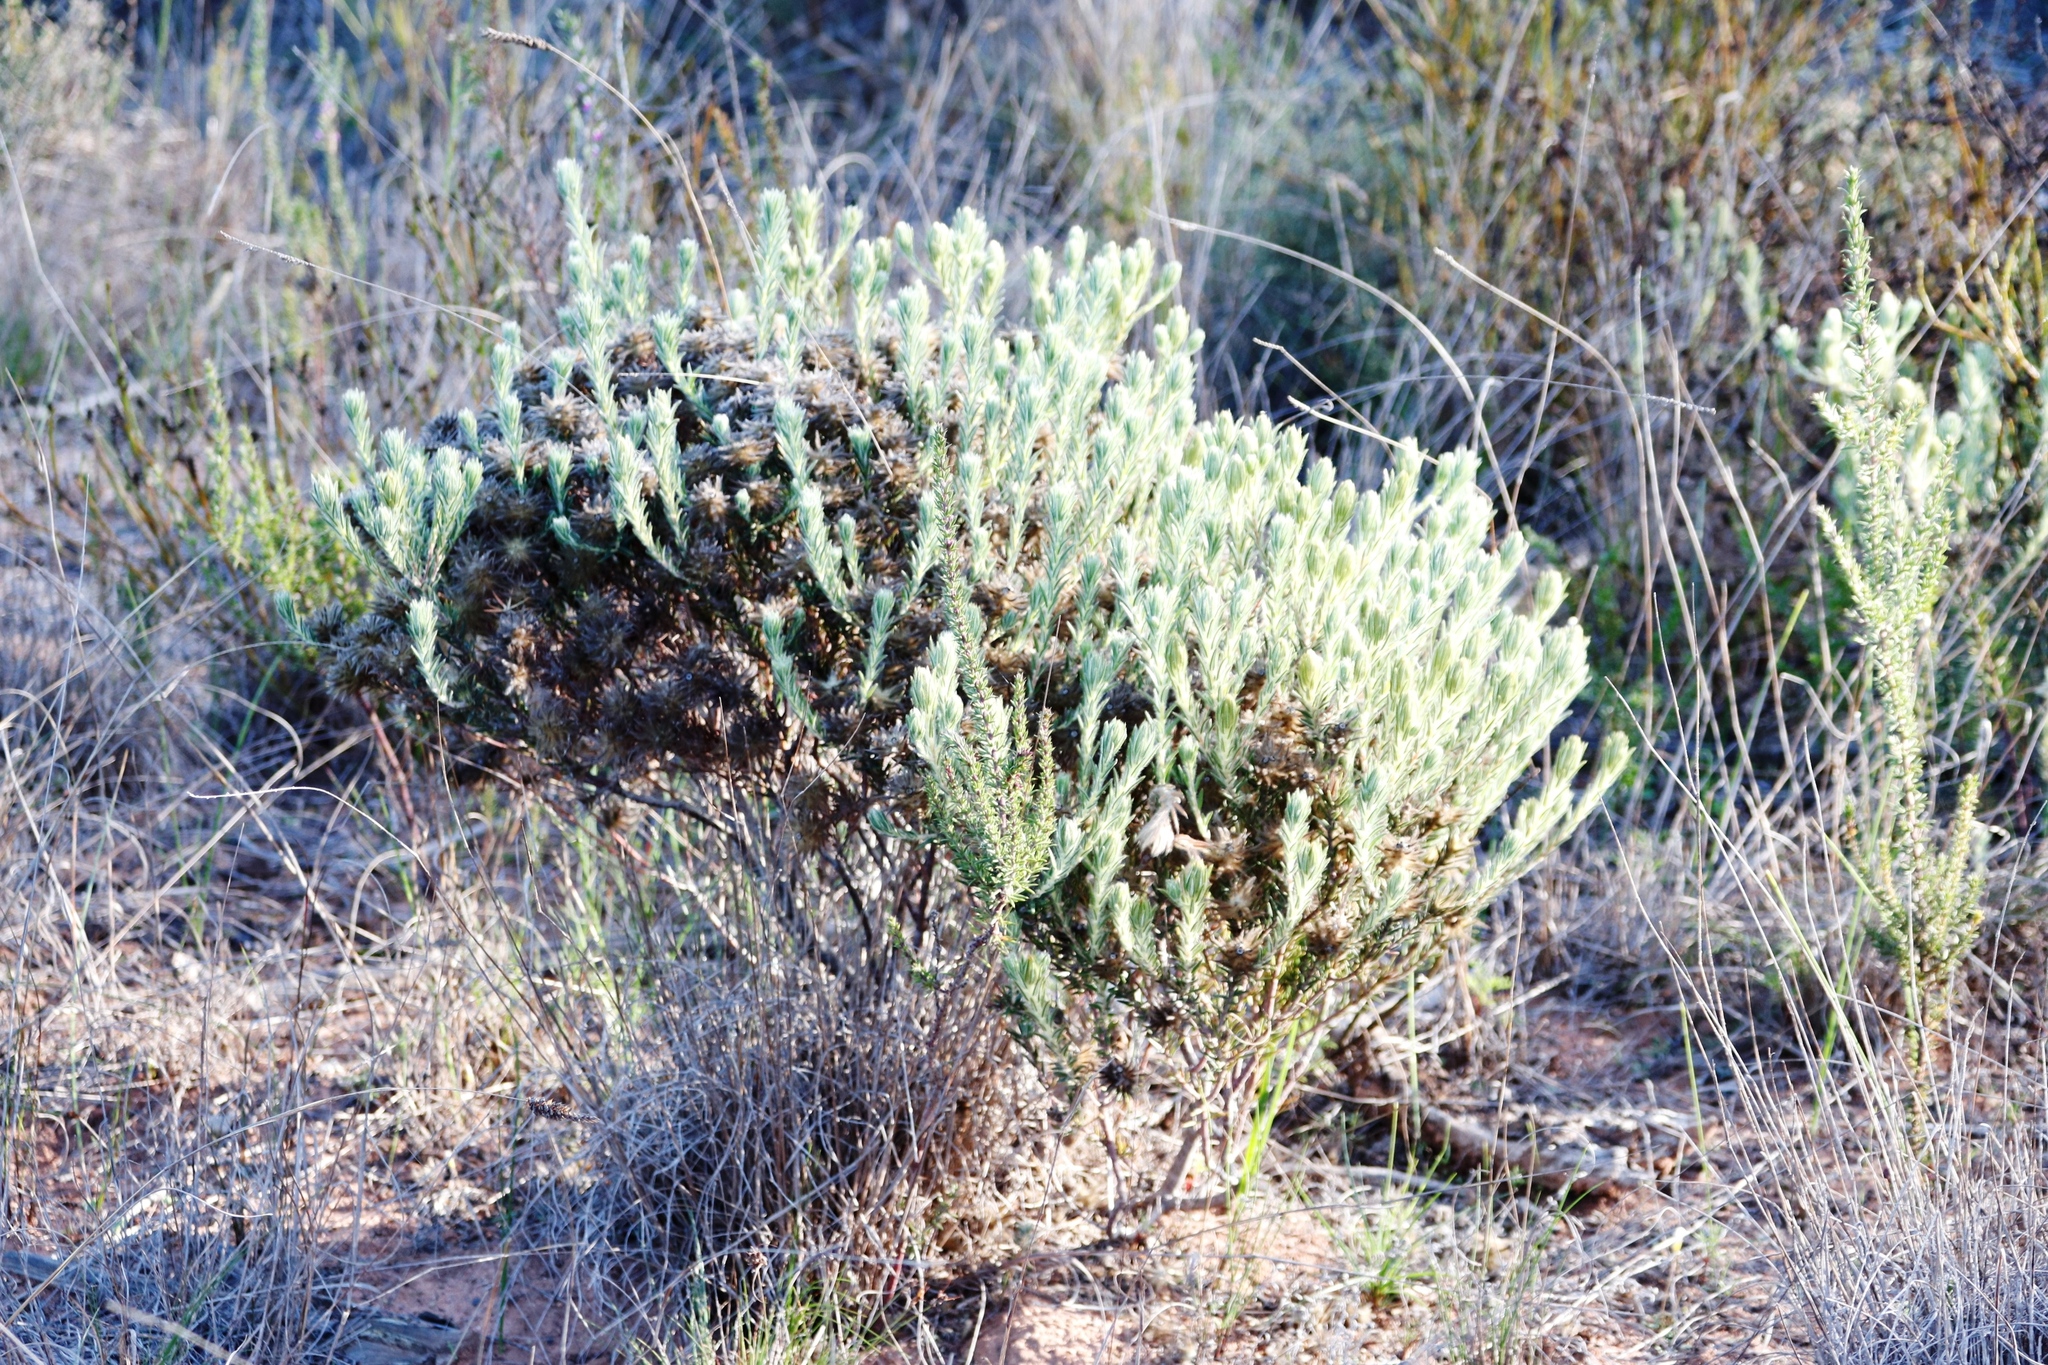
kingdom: Plantae
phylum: Tracheophyta
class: Magnoliopsida
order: Rosales
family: Rhamnaceae
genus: Phylica
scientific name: Phylica plumosa
